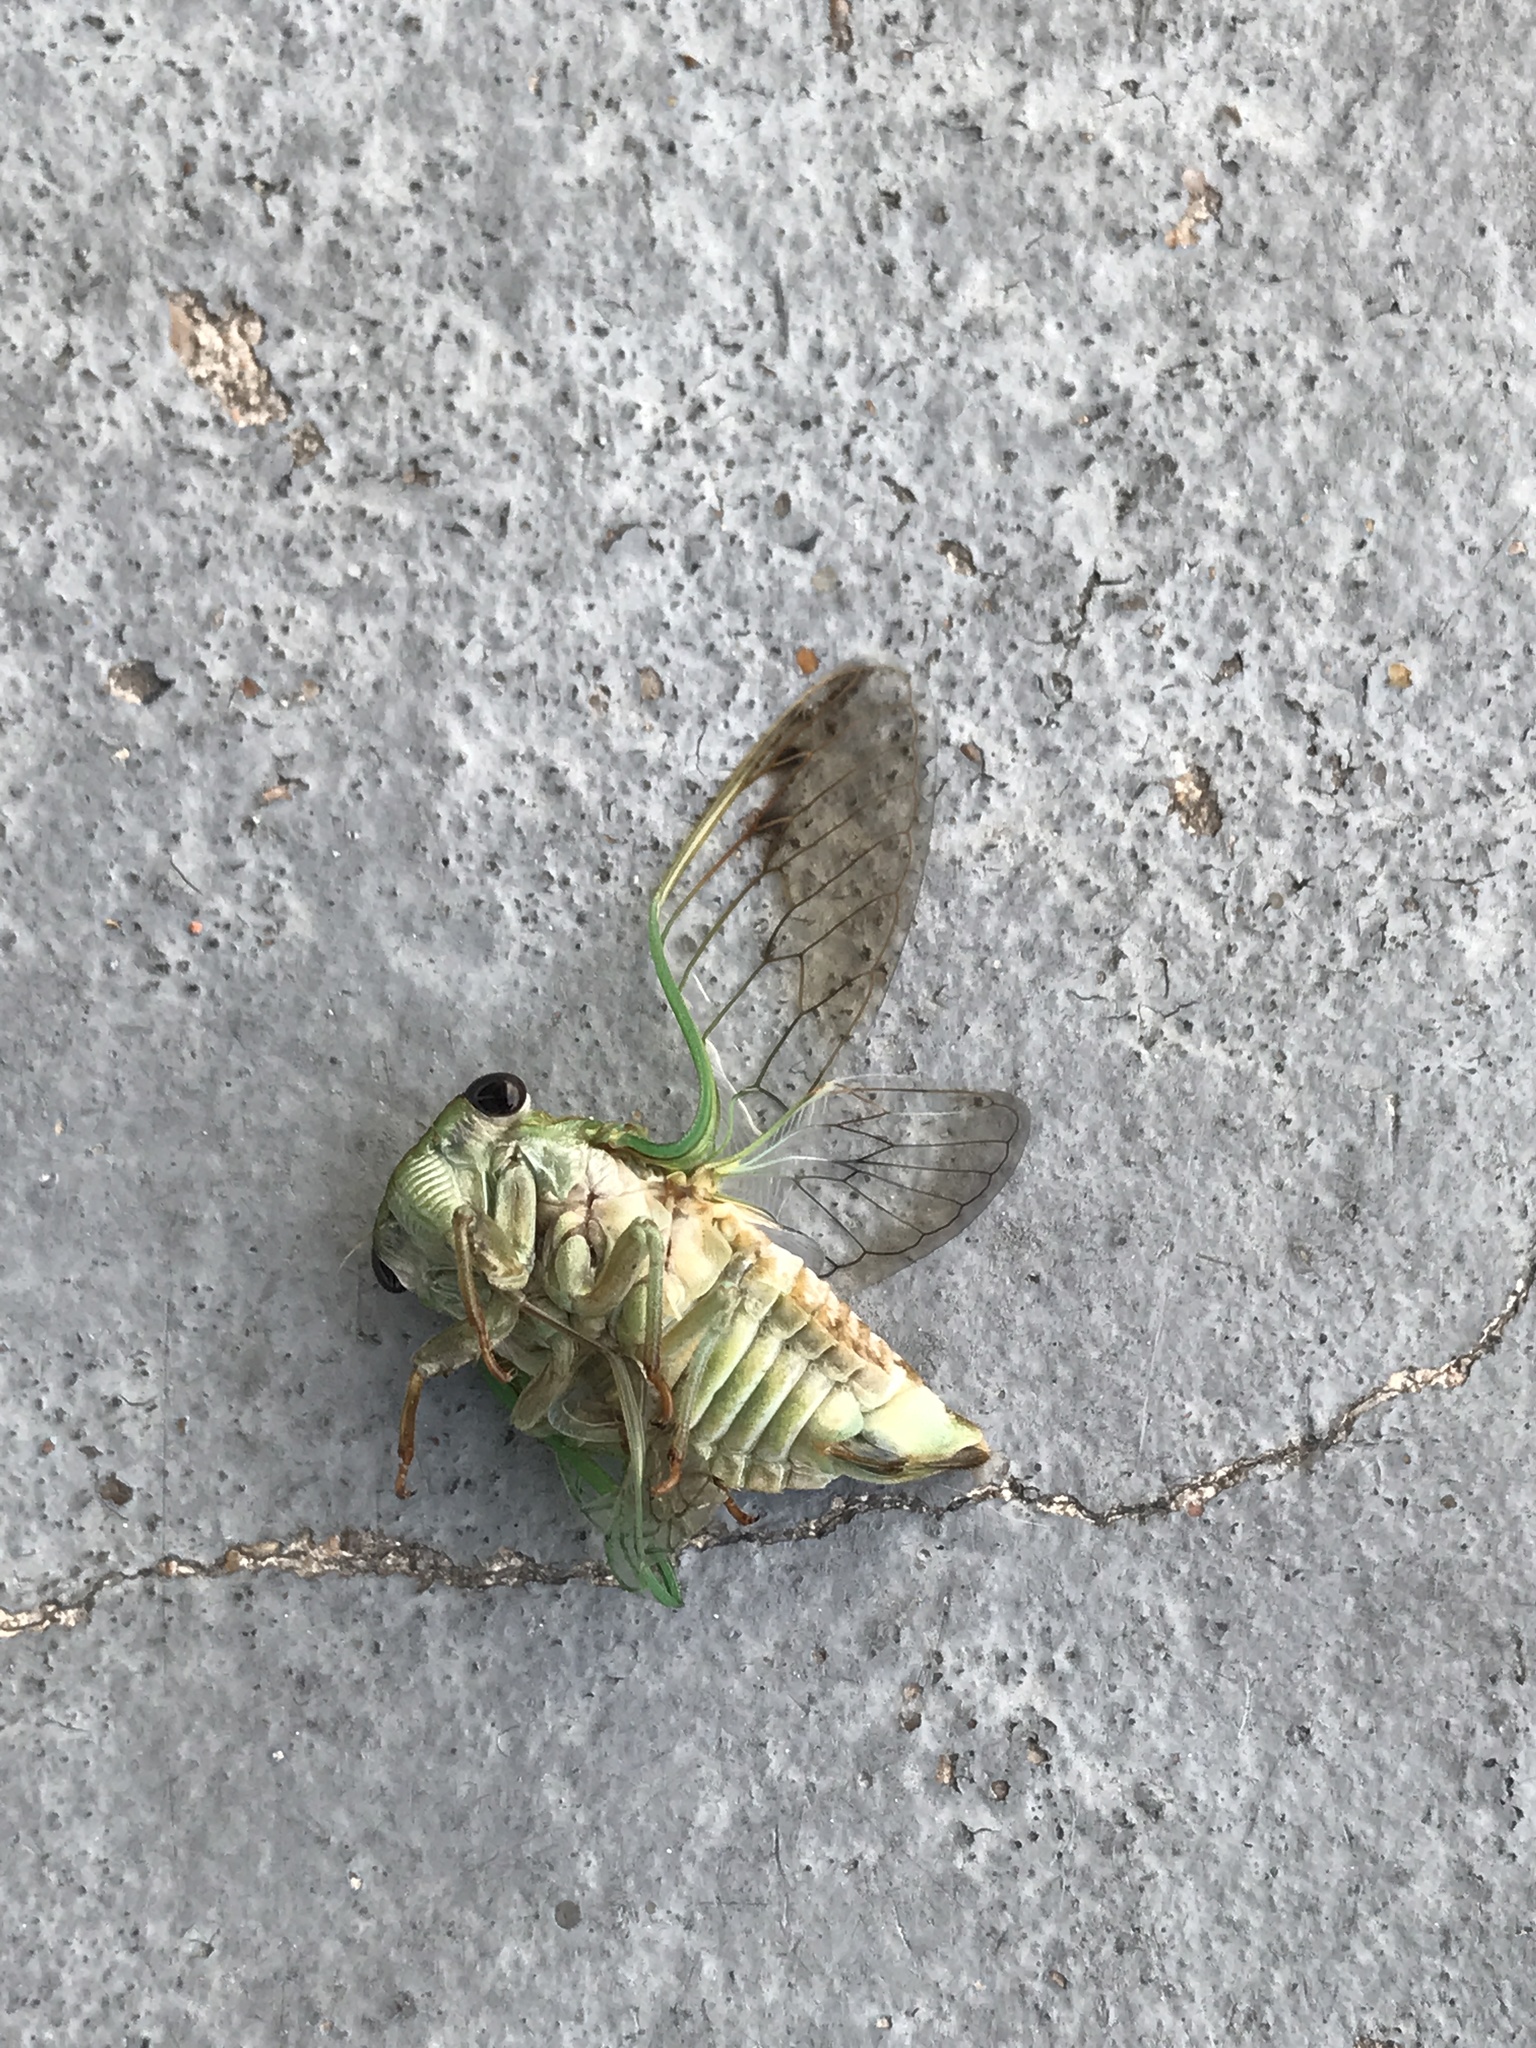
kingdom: Animalia
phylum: Arthropoda
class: Insecta
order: Hemiptera
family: Cicadidae
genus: Neotibicen
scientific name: Neotibicen superbus
